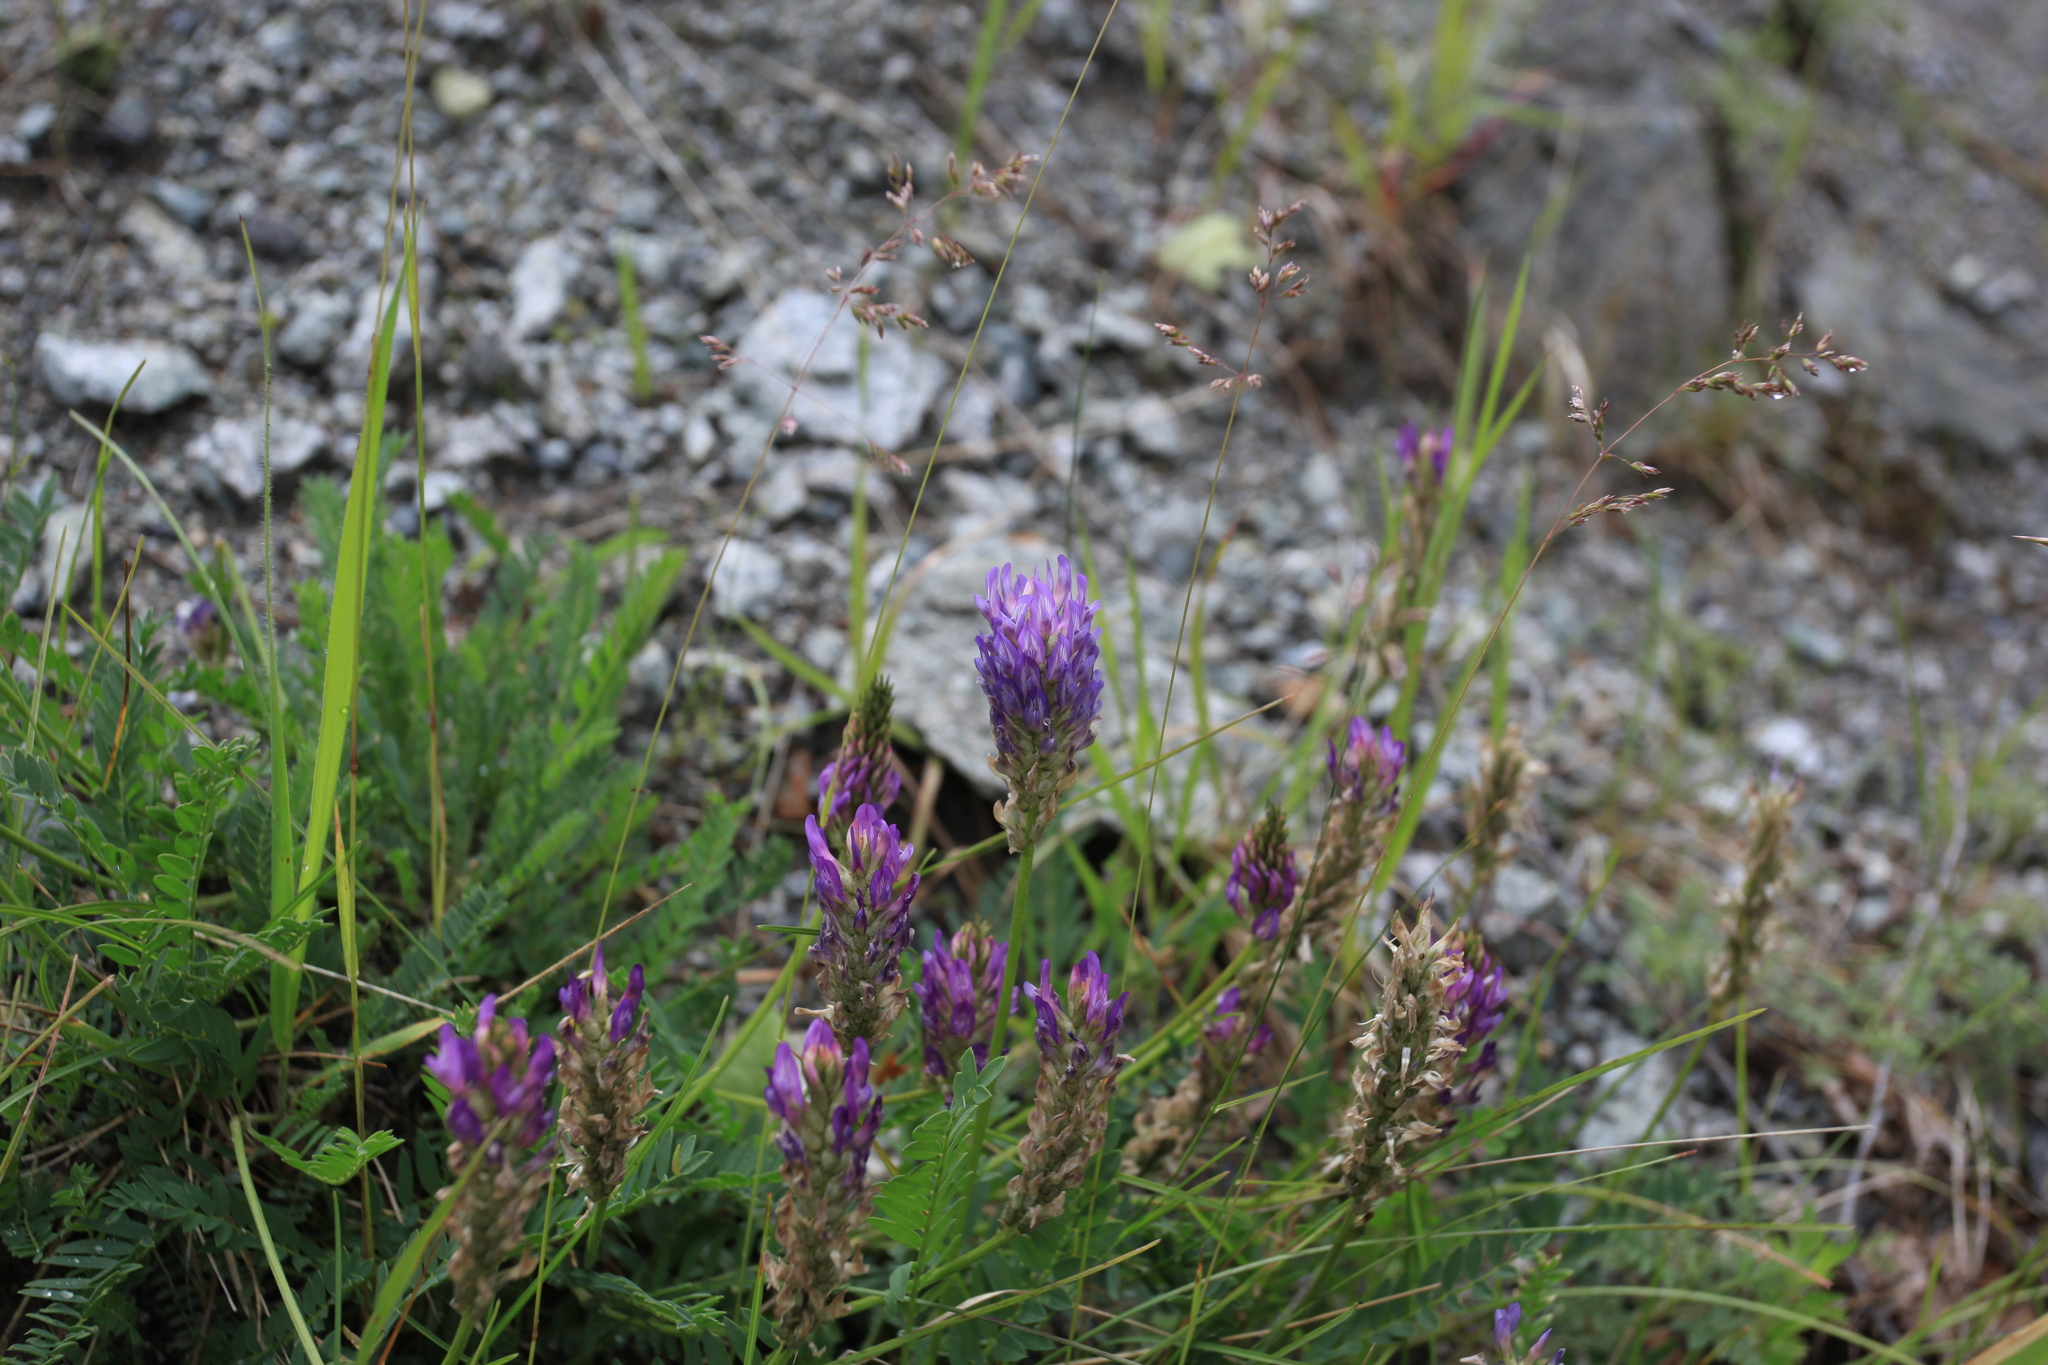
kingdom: Plantae
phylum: Tracheophyta
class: Magnoliopsida
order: Fabales
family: Fabaceae
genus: Astragalus
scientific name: Astragalus laxmannii
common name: Laxmann's milk-vetch
